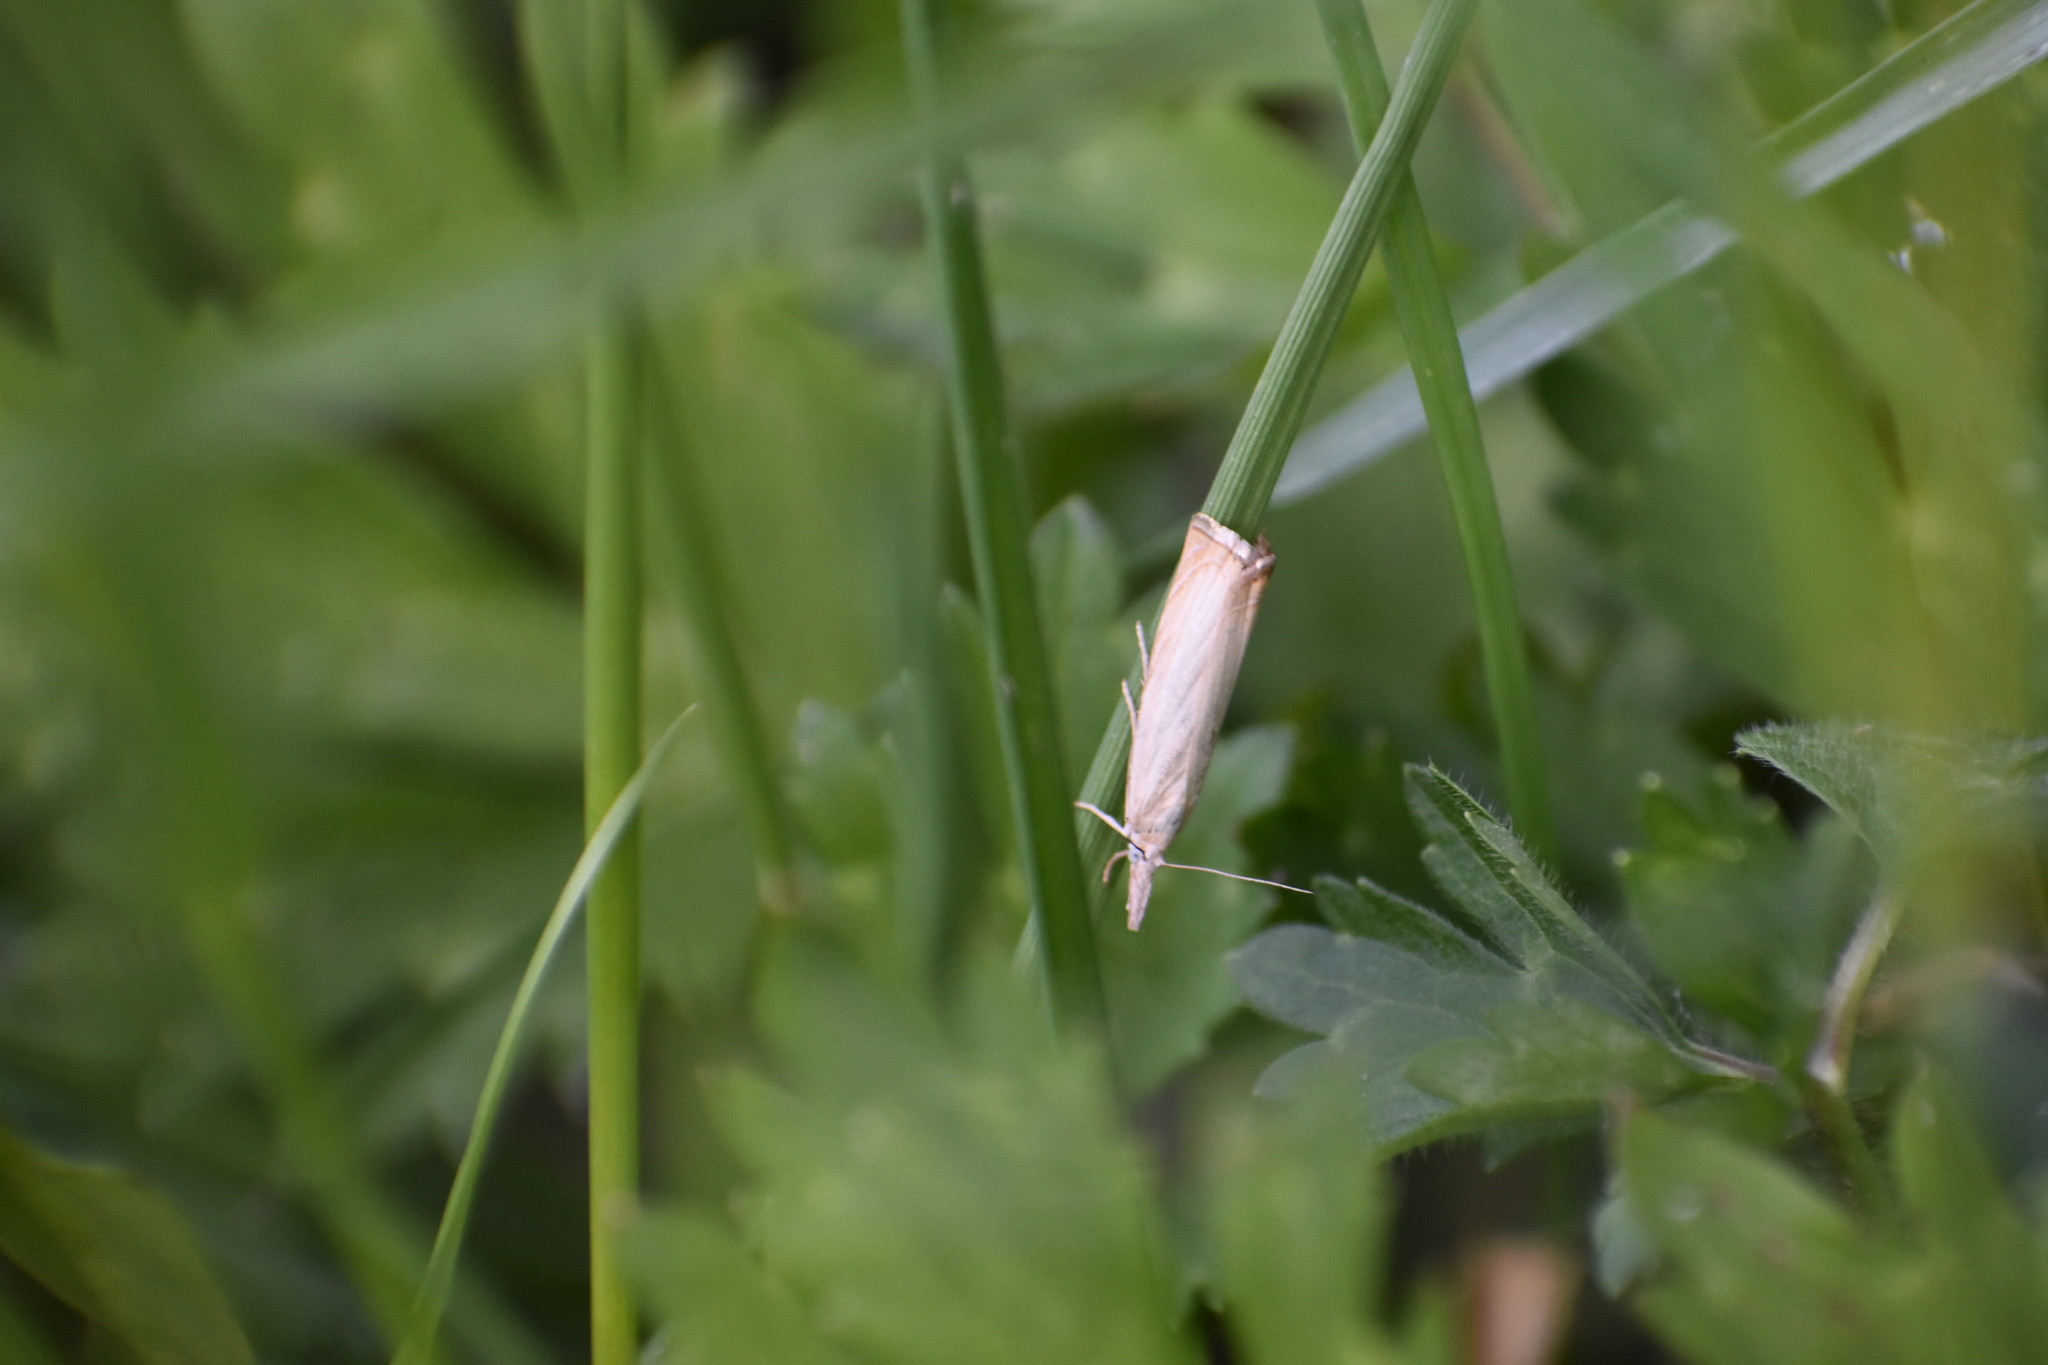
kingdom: Animalia
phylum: Arthropoda
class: Insecta
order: Lepidoptera
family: Crambidae
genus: Chrysoteuchia
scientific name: Chrysoteuchia culmella
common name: Garden grass-veneer
